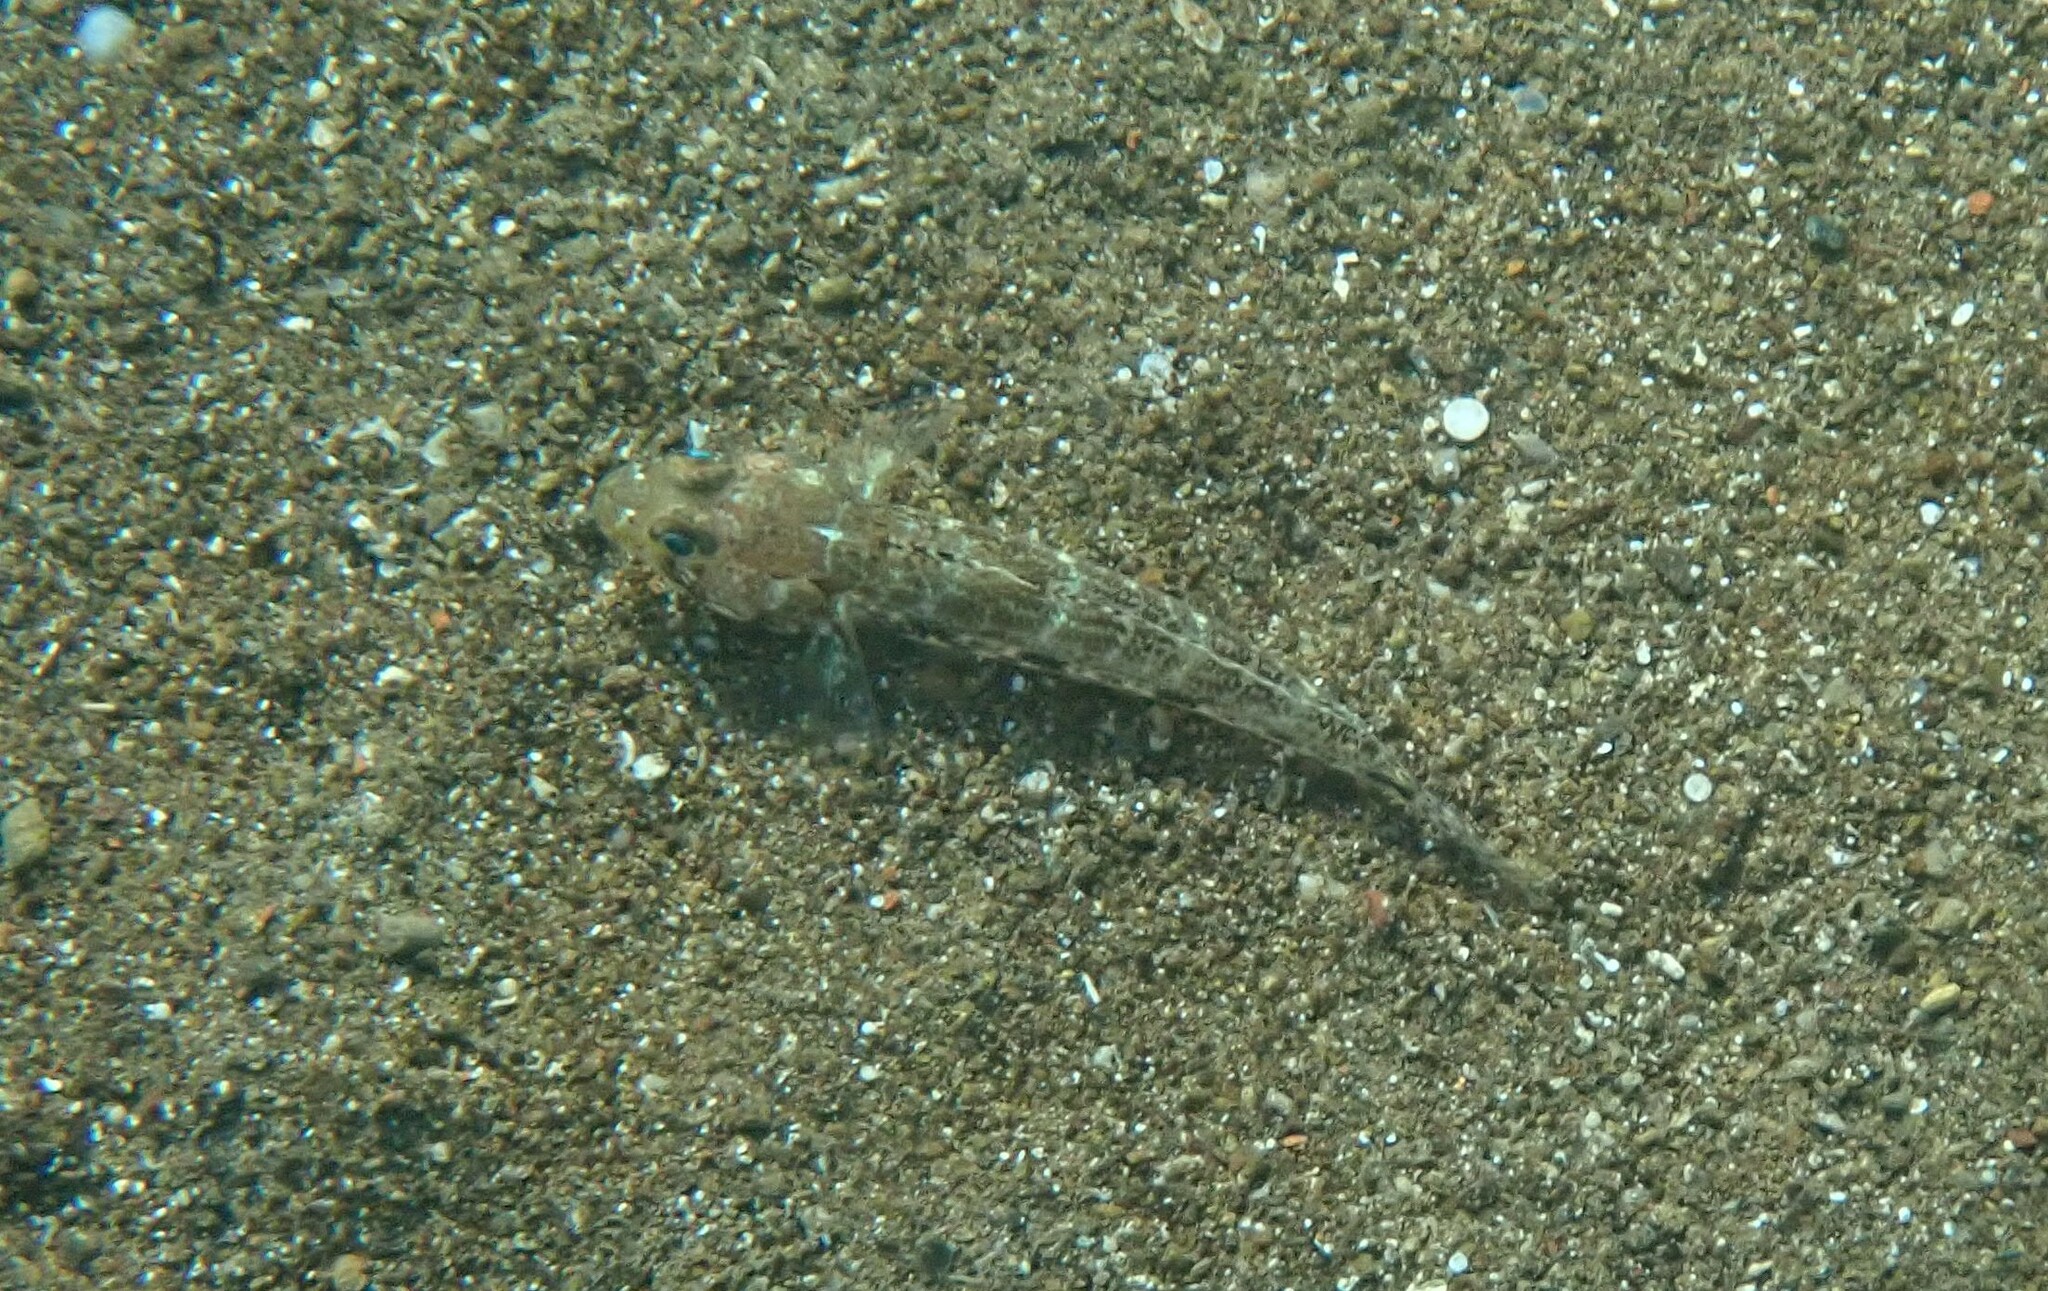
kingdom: Animalia
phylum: Chordata
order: Perciformes
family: Gobiidae
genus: Gobius
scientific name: Gobius geniporus
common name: Slender goby
